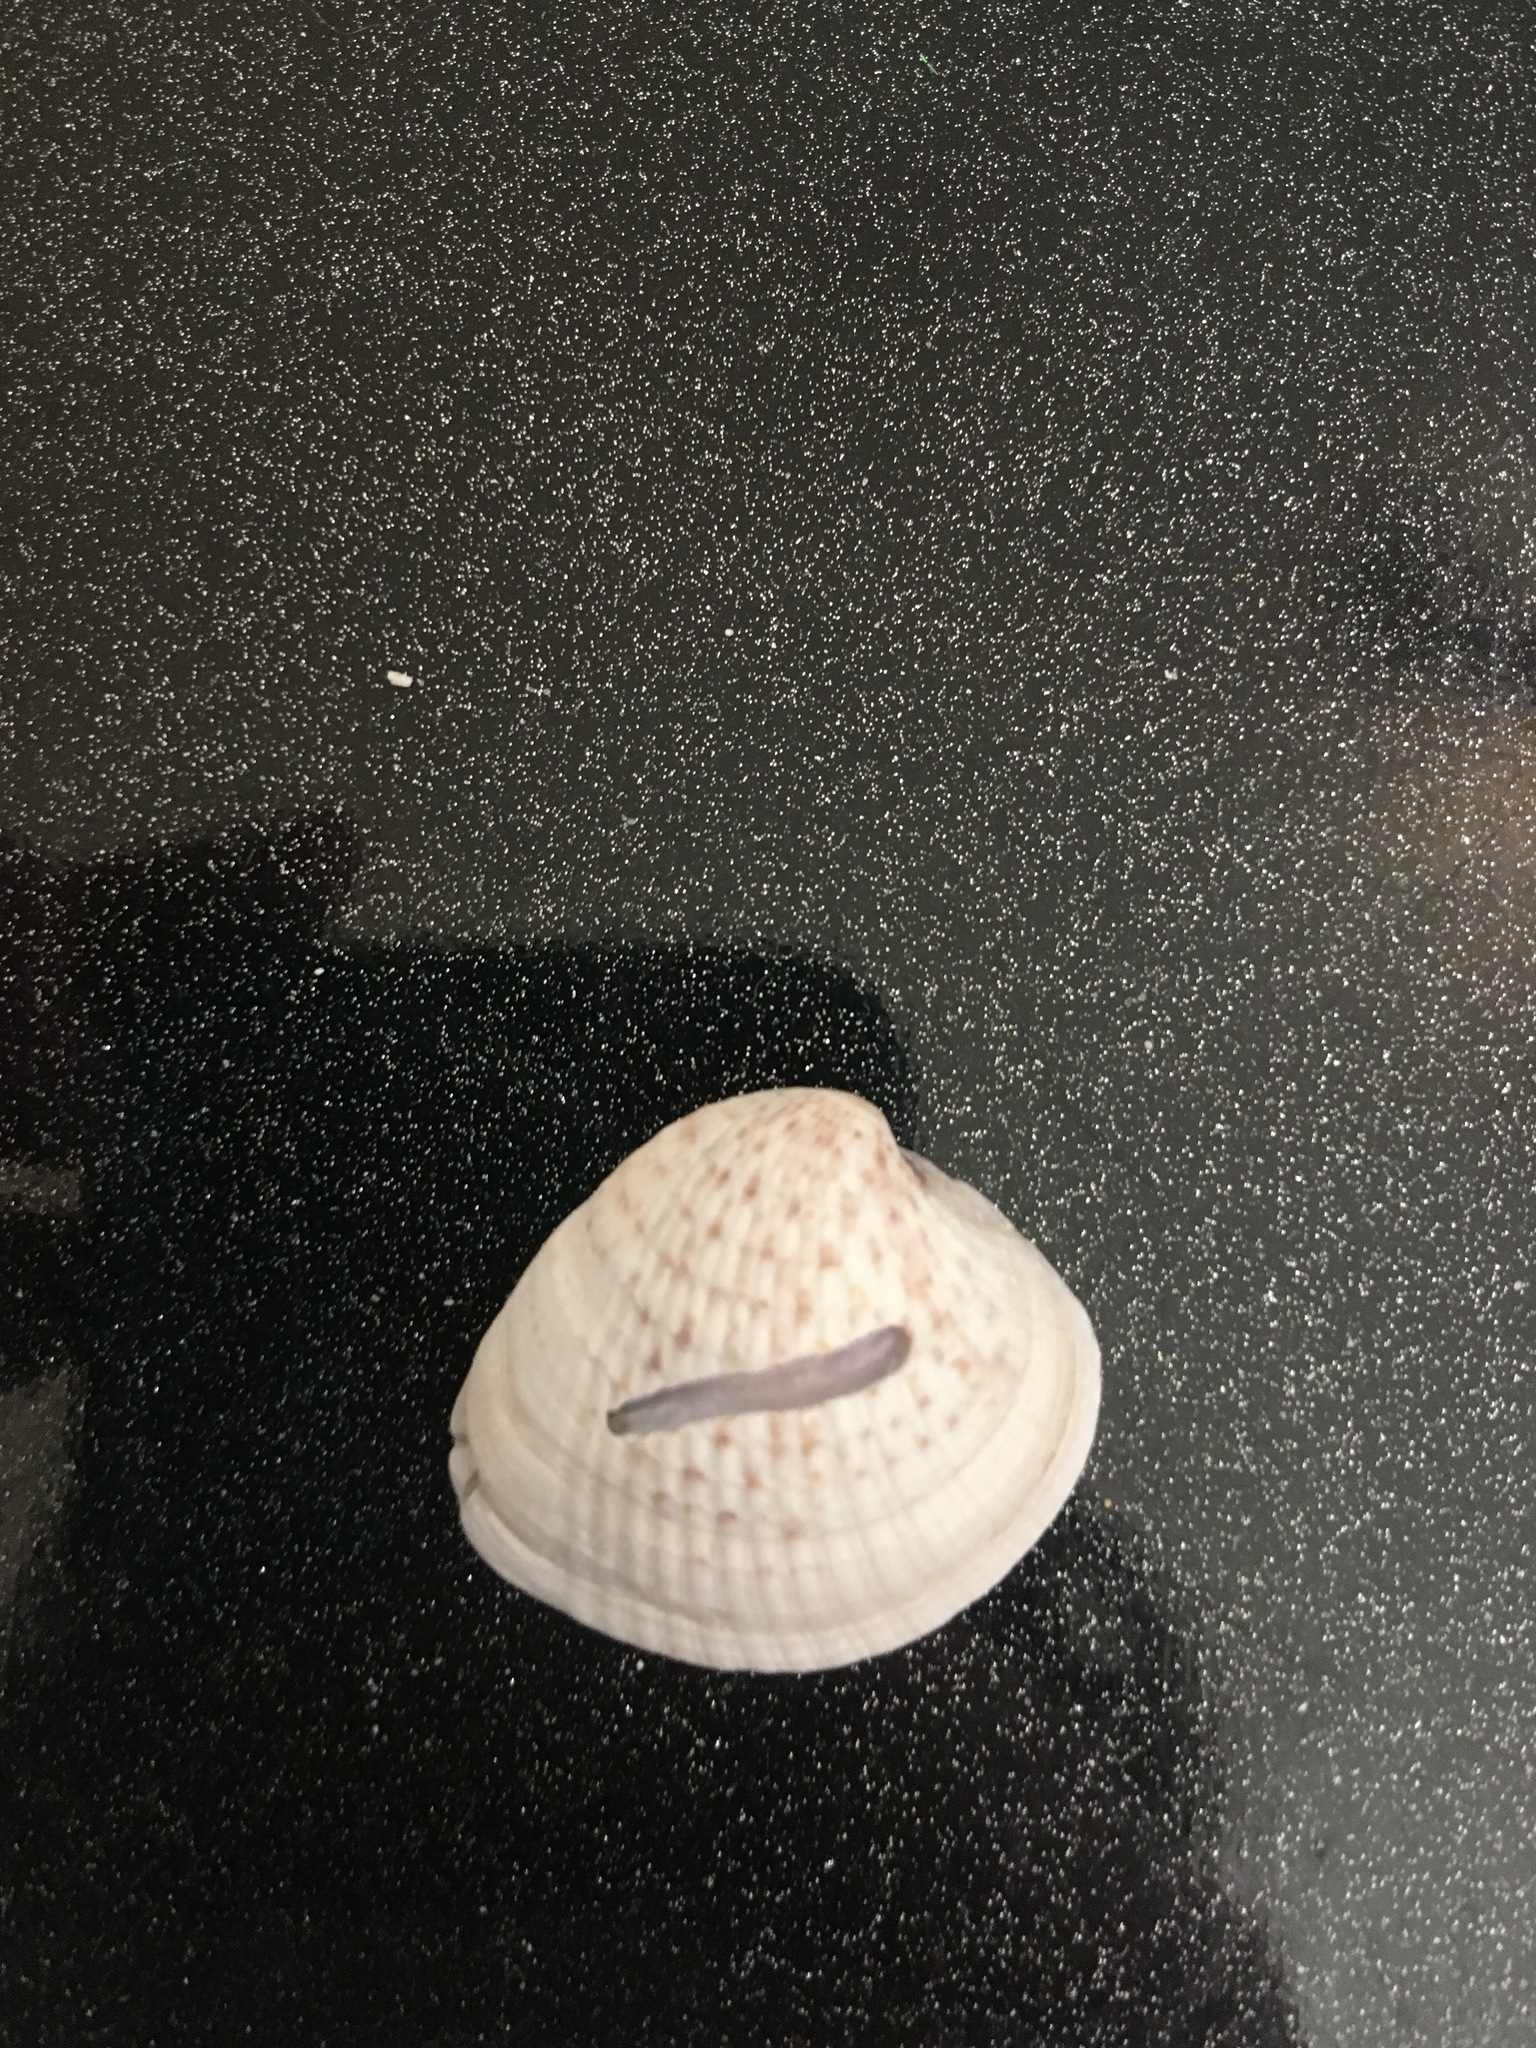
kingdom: Animalia
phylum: Mollusca
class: Bivalvia
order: Venerida
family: Veneridae
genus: Chione
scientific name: Chione elevata
